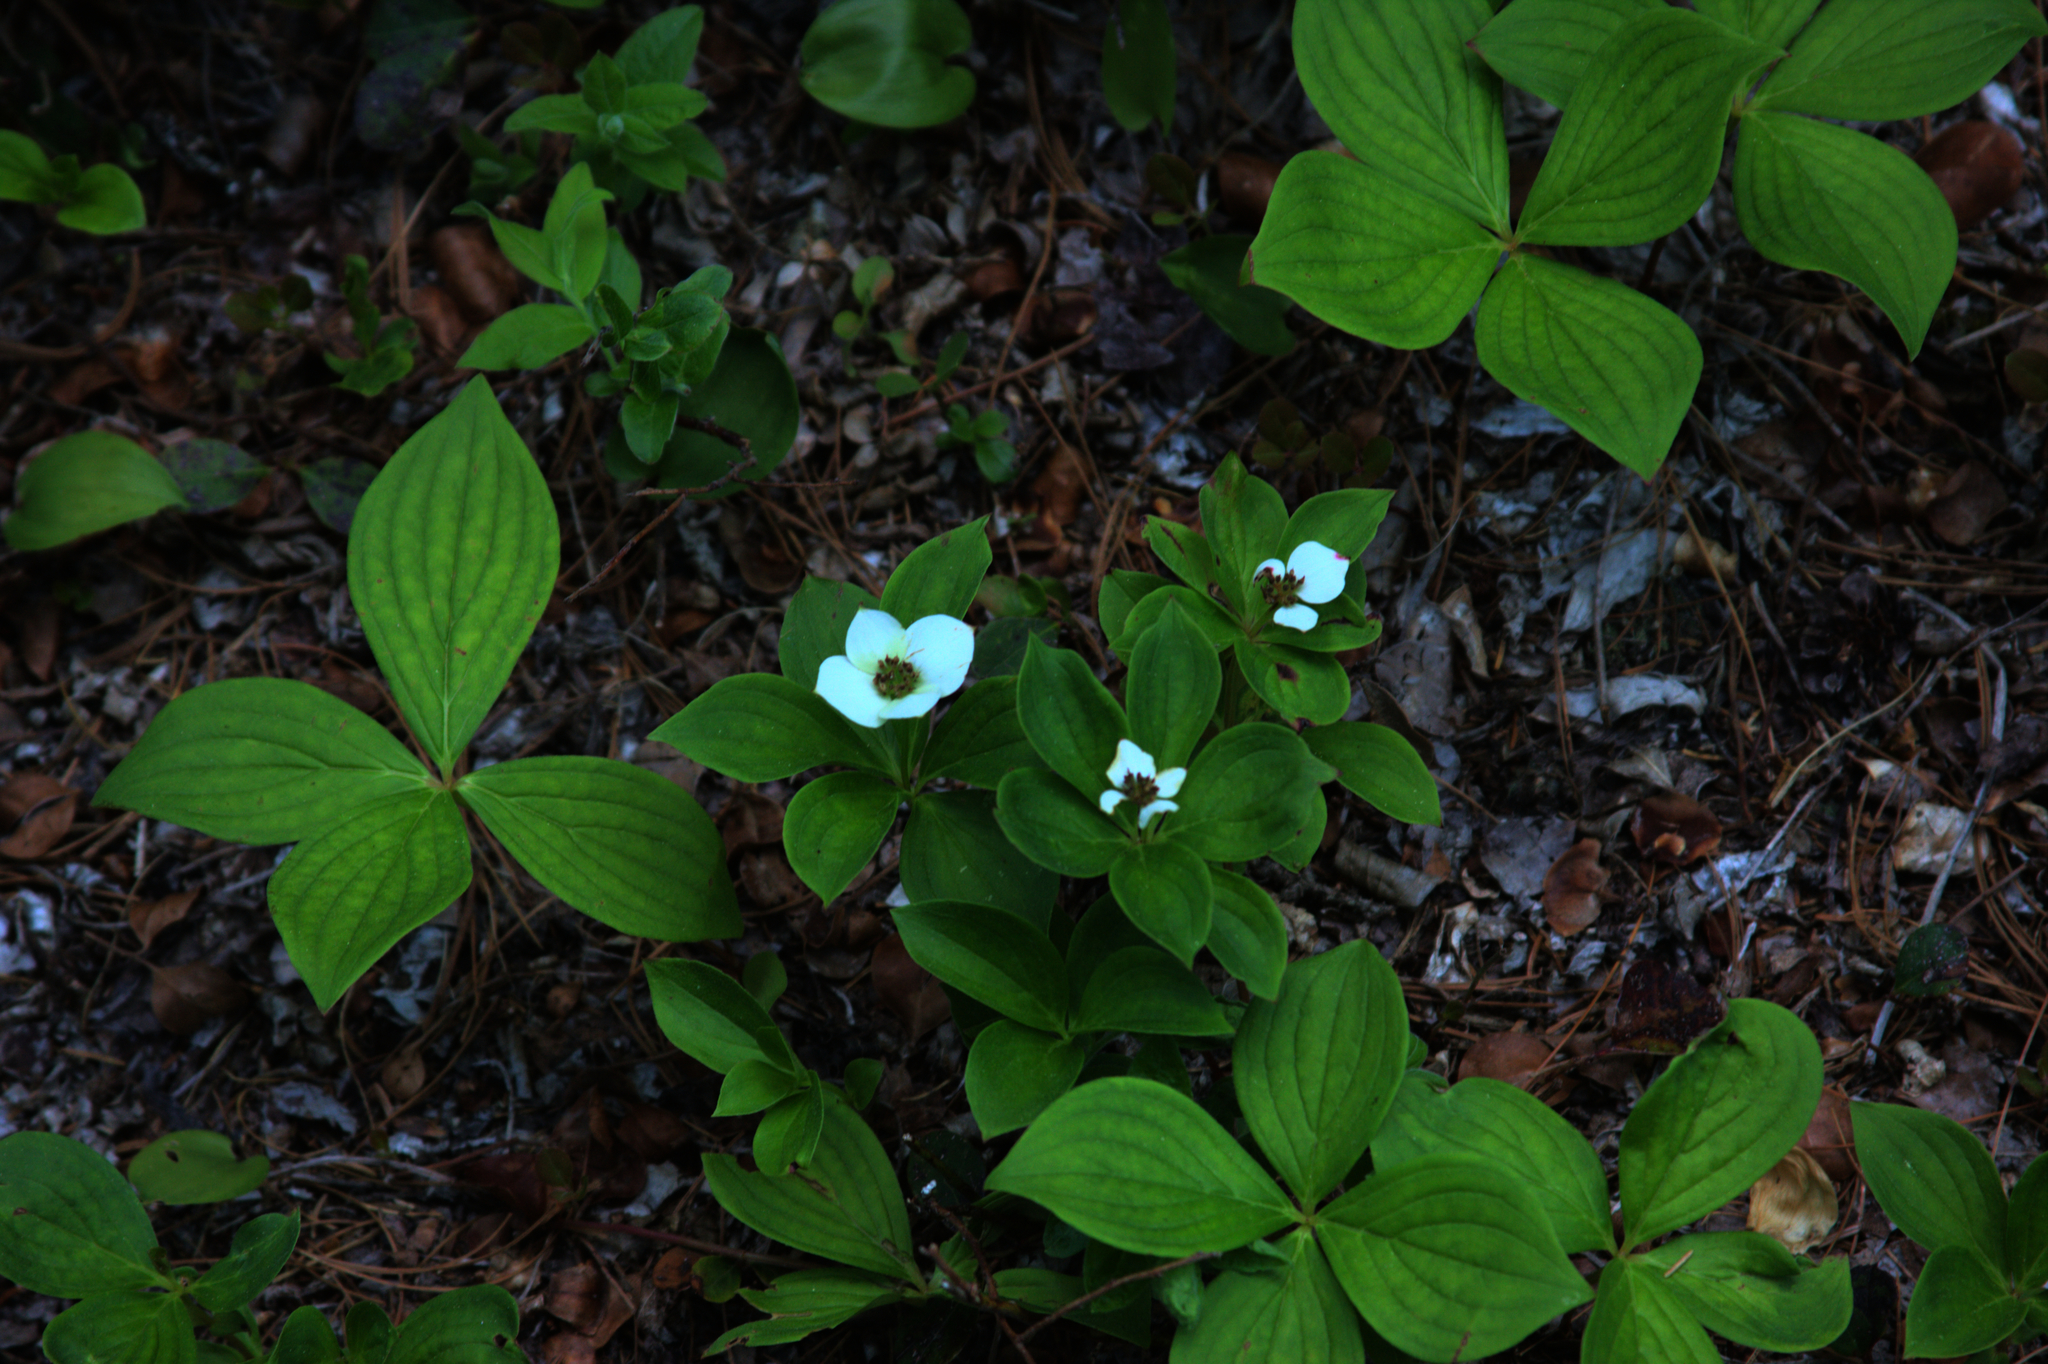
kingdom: Plantae
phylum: Tracheophyta
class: Magnoliopsida
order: Cornales
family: Cornaceae
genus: Cornus
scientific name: Cornus canadensis
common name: Creeping dogwood
